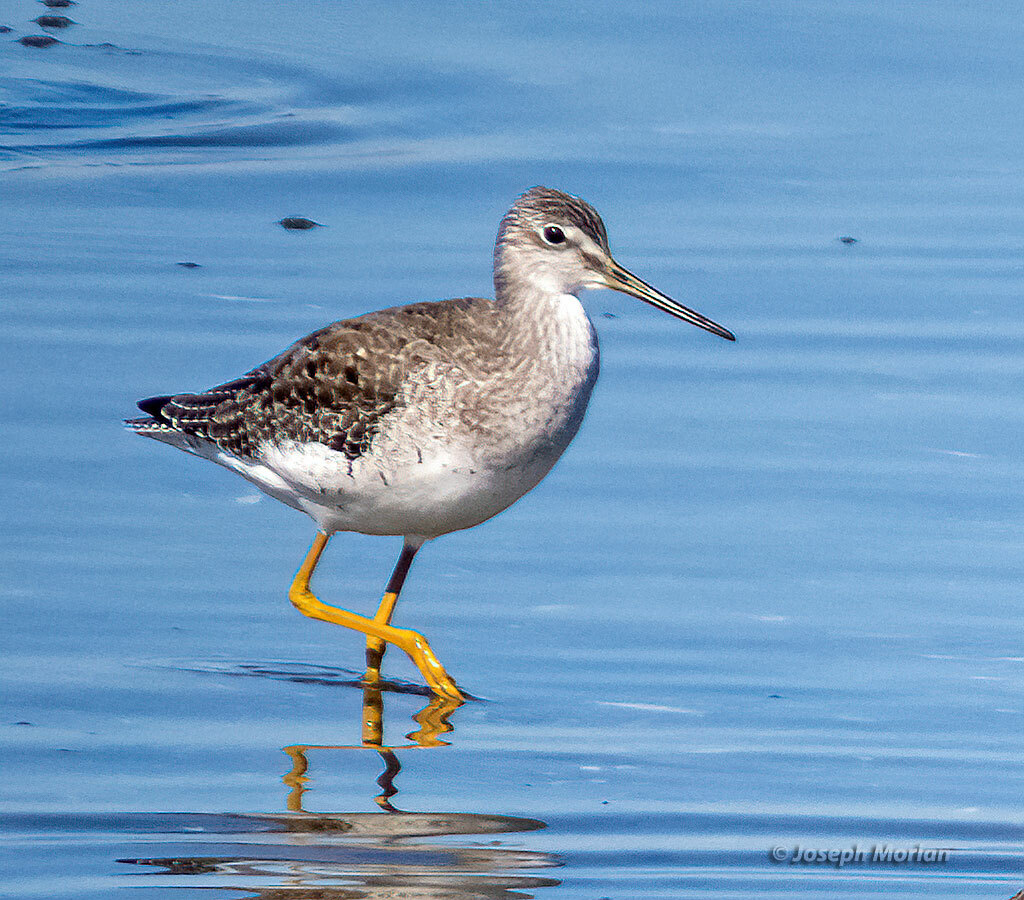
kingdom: Animalia
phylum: Chordata
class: Aves
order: Charadriiformes
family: Scolopacidae
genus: Tringa
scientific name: Tringa melanoleuca
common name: Greater yellowlegs
